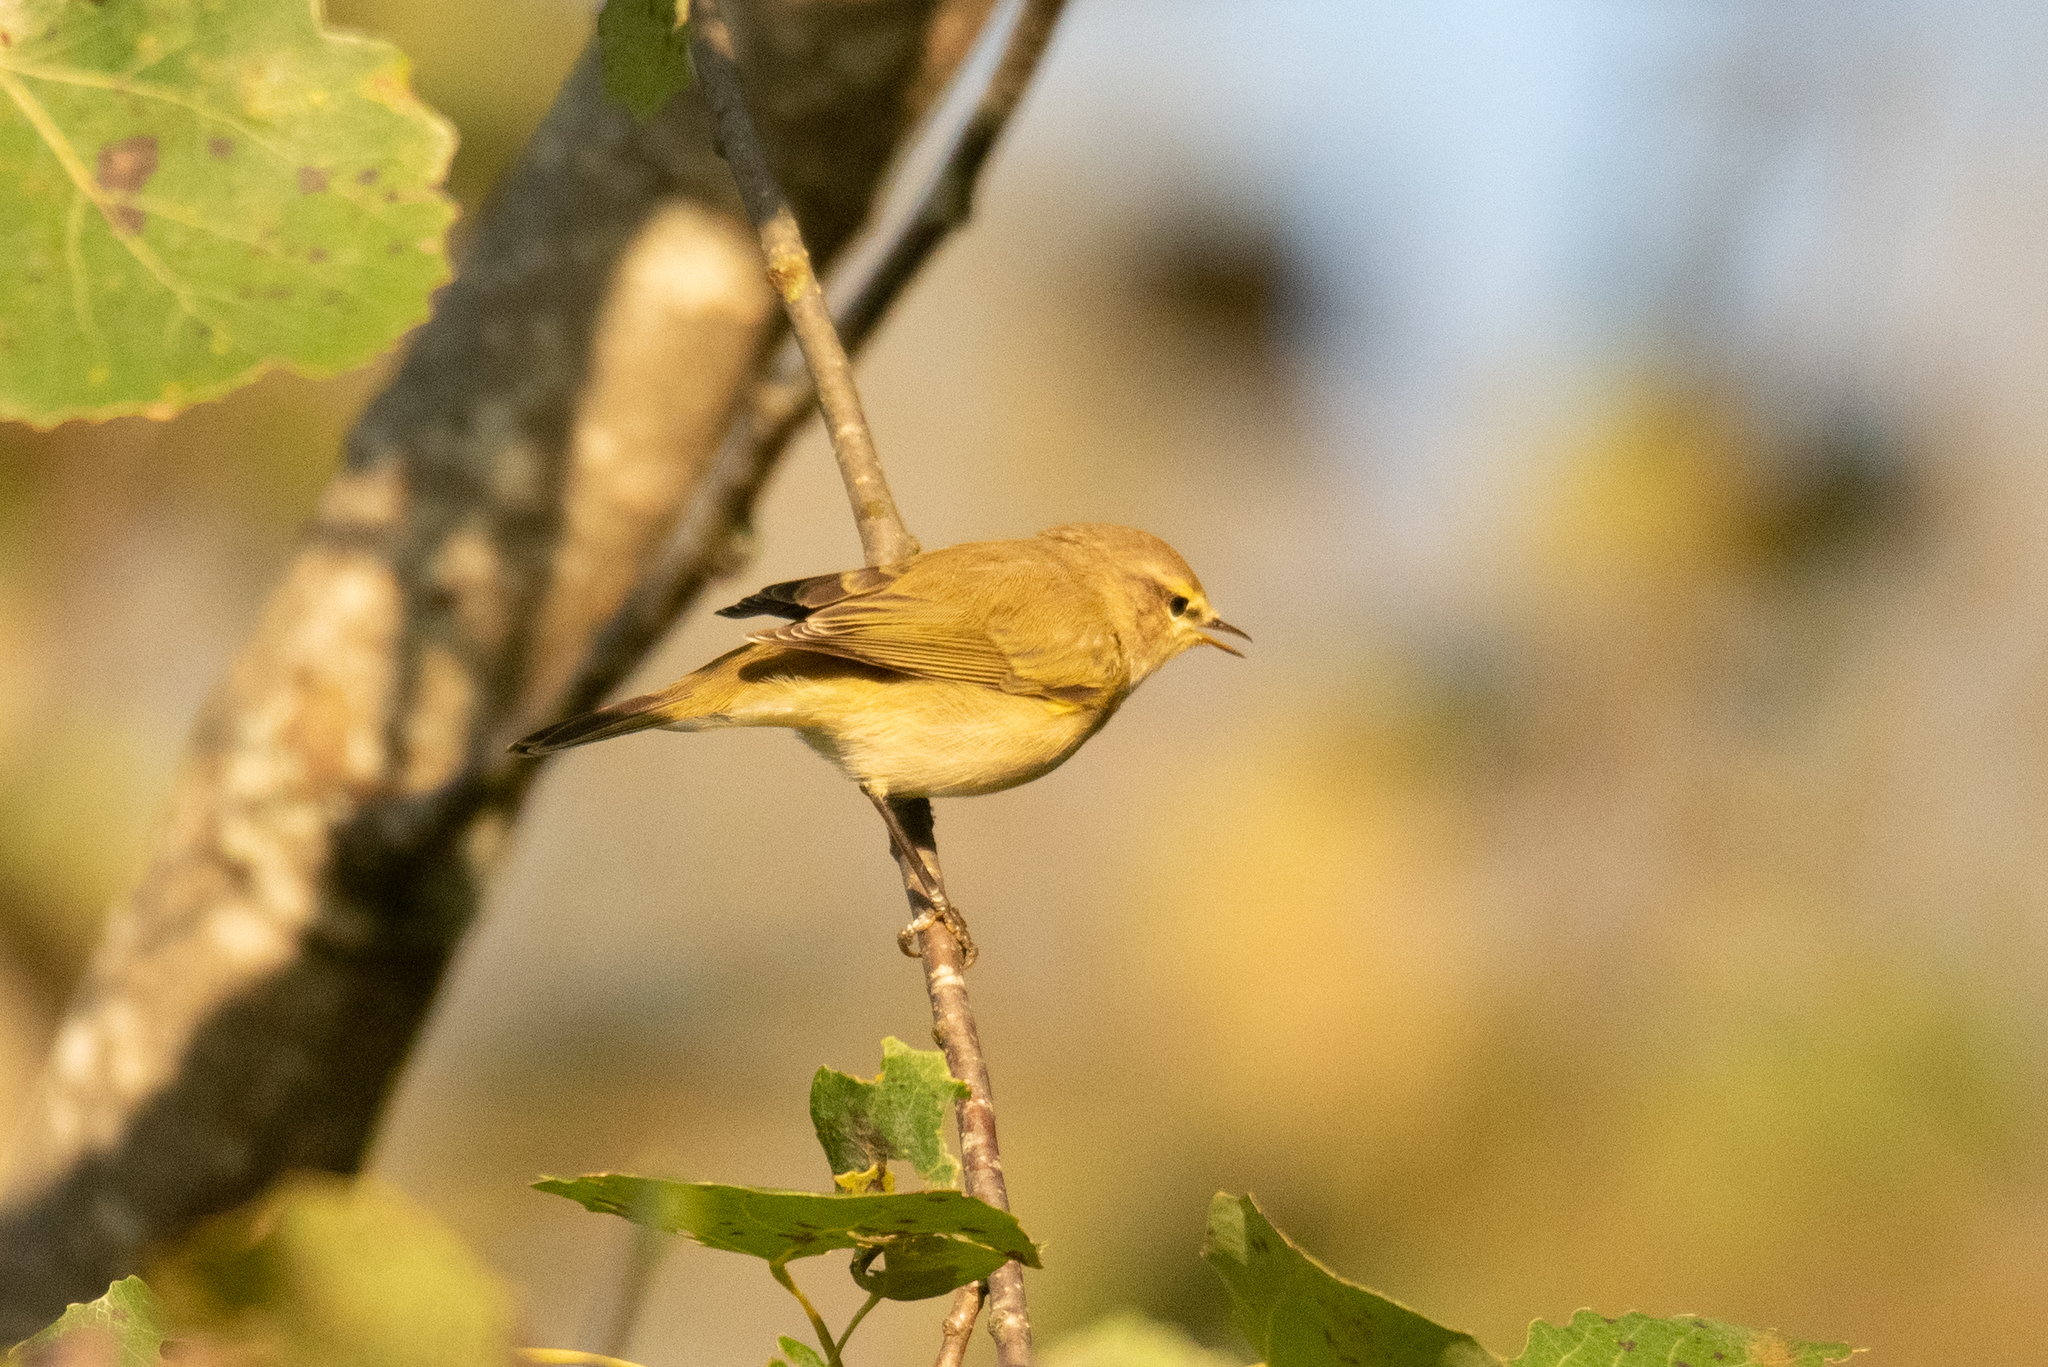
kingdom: Animalia
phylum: Chordata
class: Aves
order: Passeriformes
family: Phylloscopidae
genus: Phylloscopus
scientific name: Phylloscopus collybita
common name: Common chiffchaff
